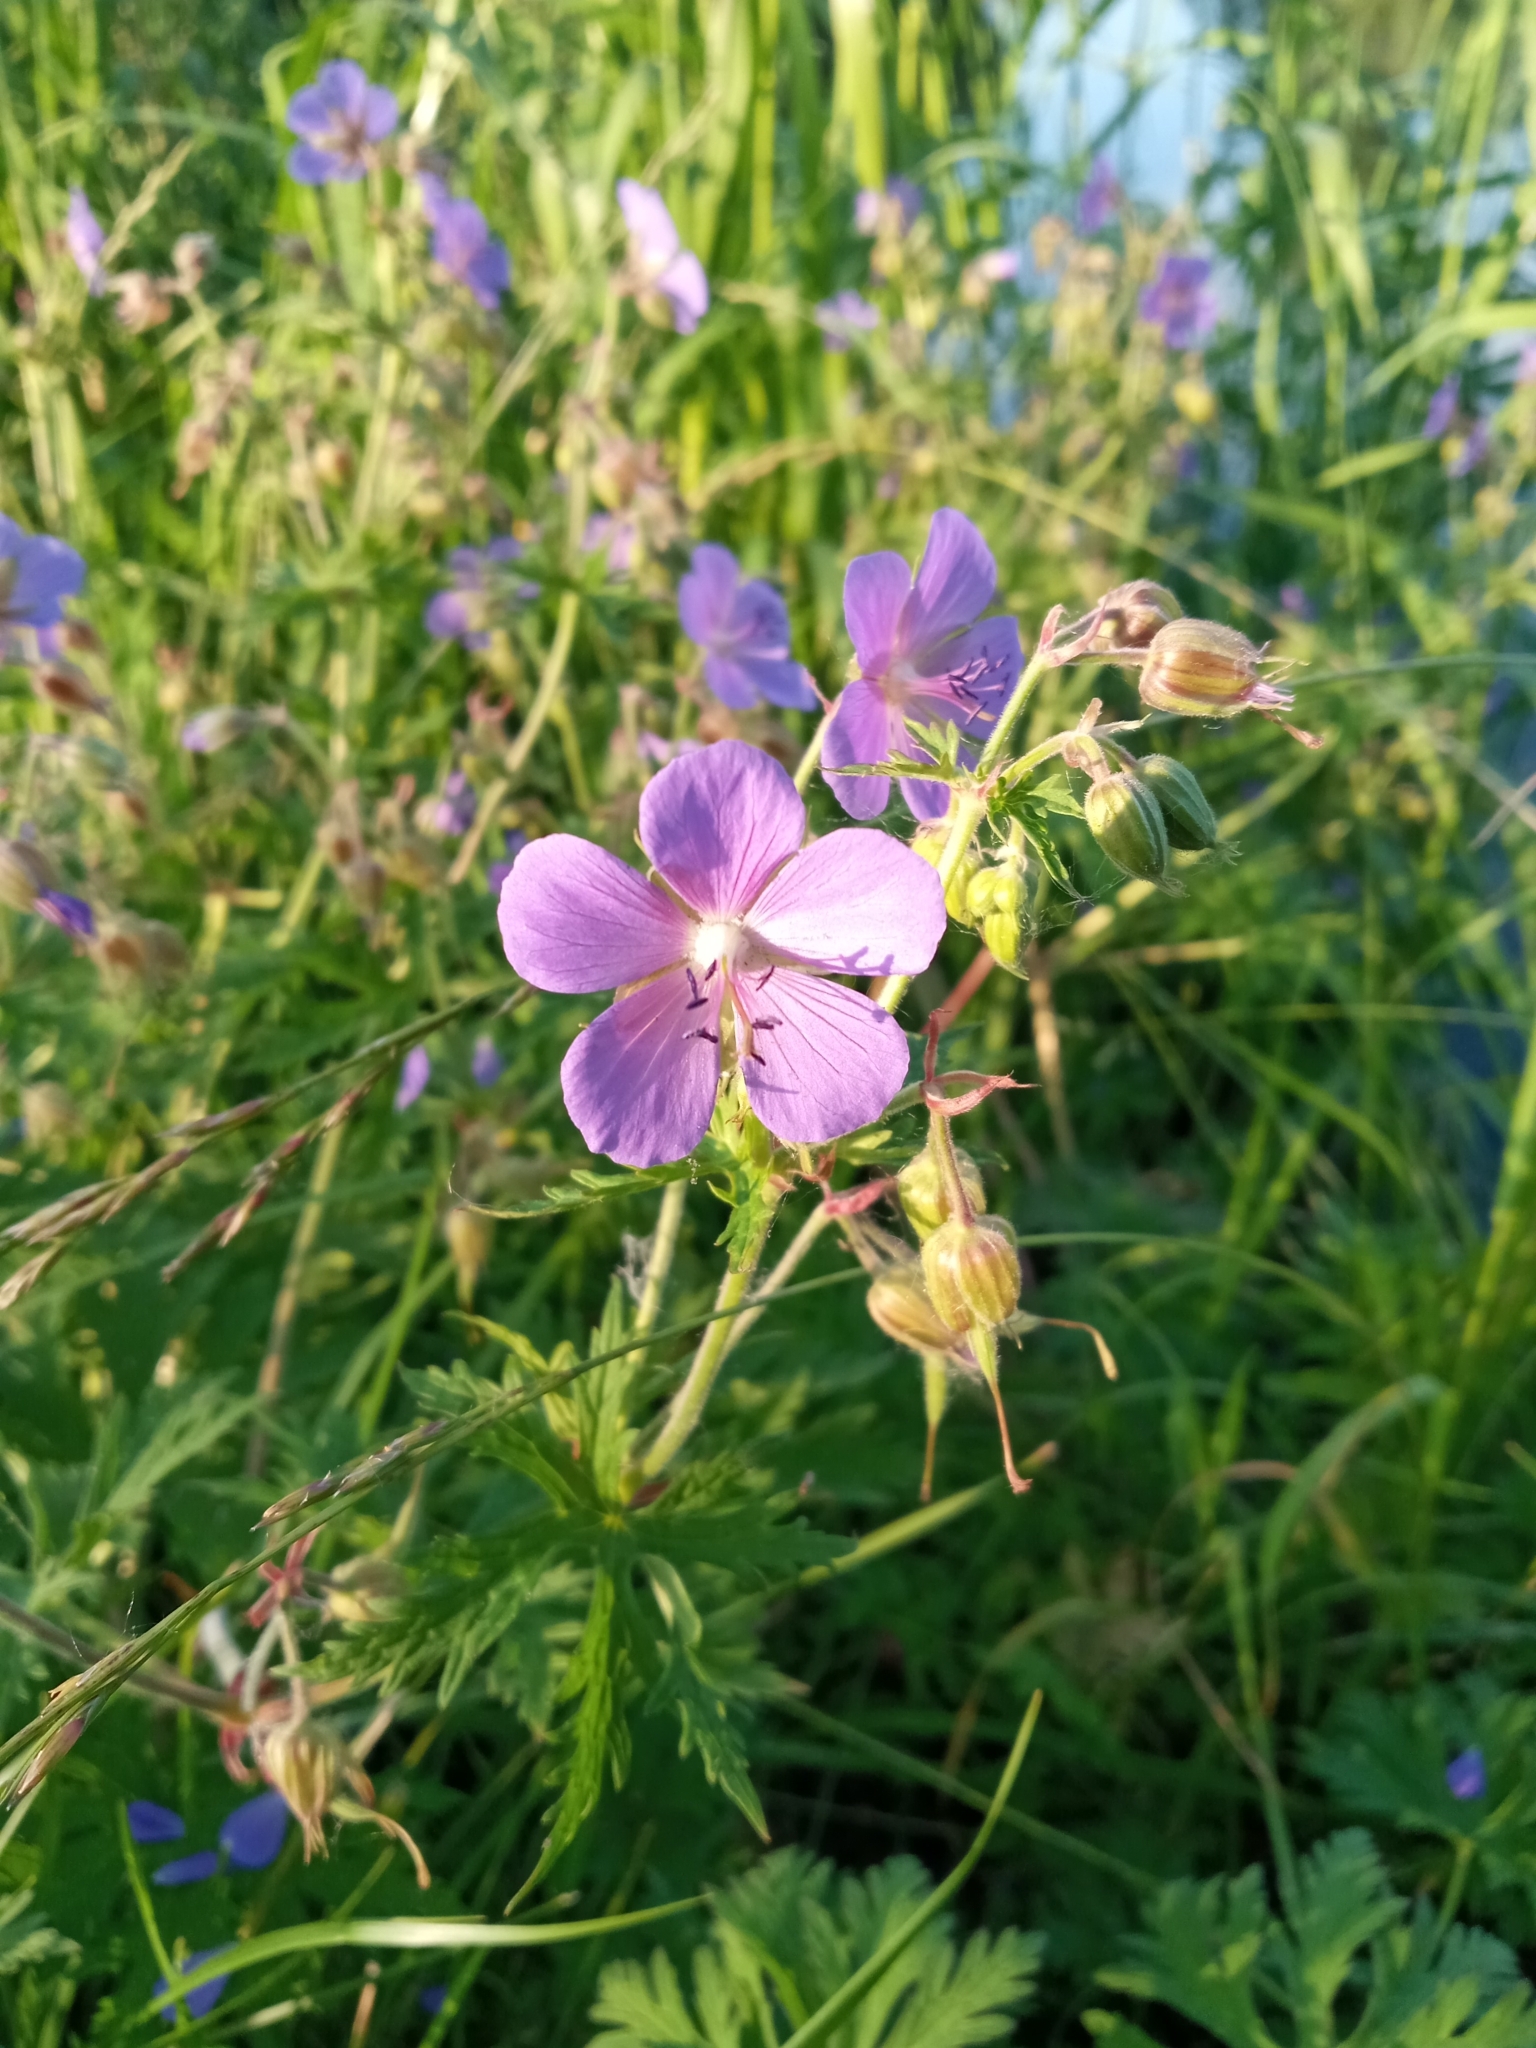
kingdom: Plantae
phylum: Tracheophyta
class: Magnoliopsida
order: Geraniales
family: Geraniaceae
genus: Geranium
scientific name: Geranium pratense
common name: Meadow crane's-bill
